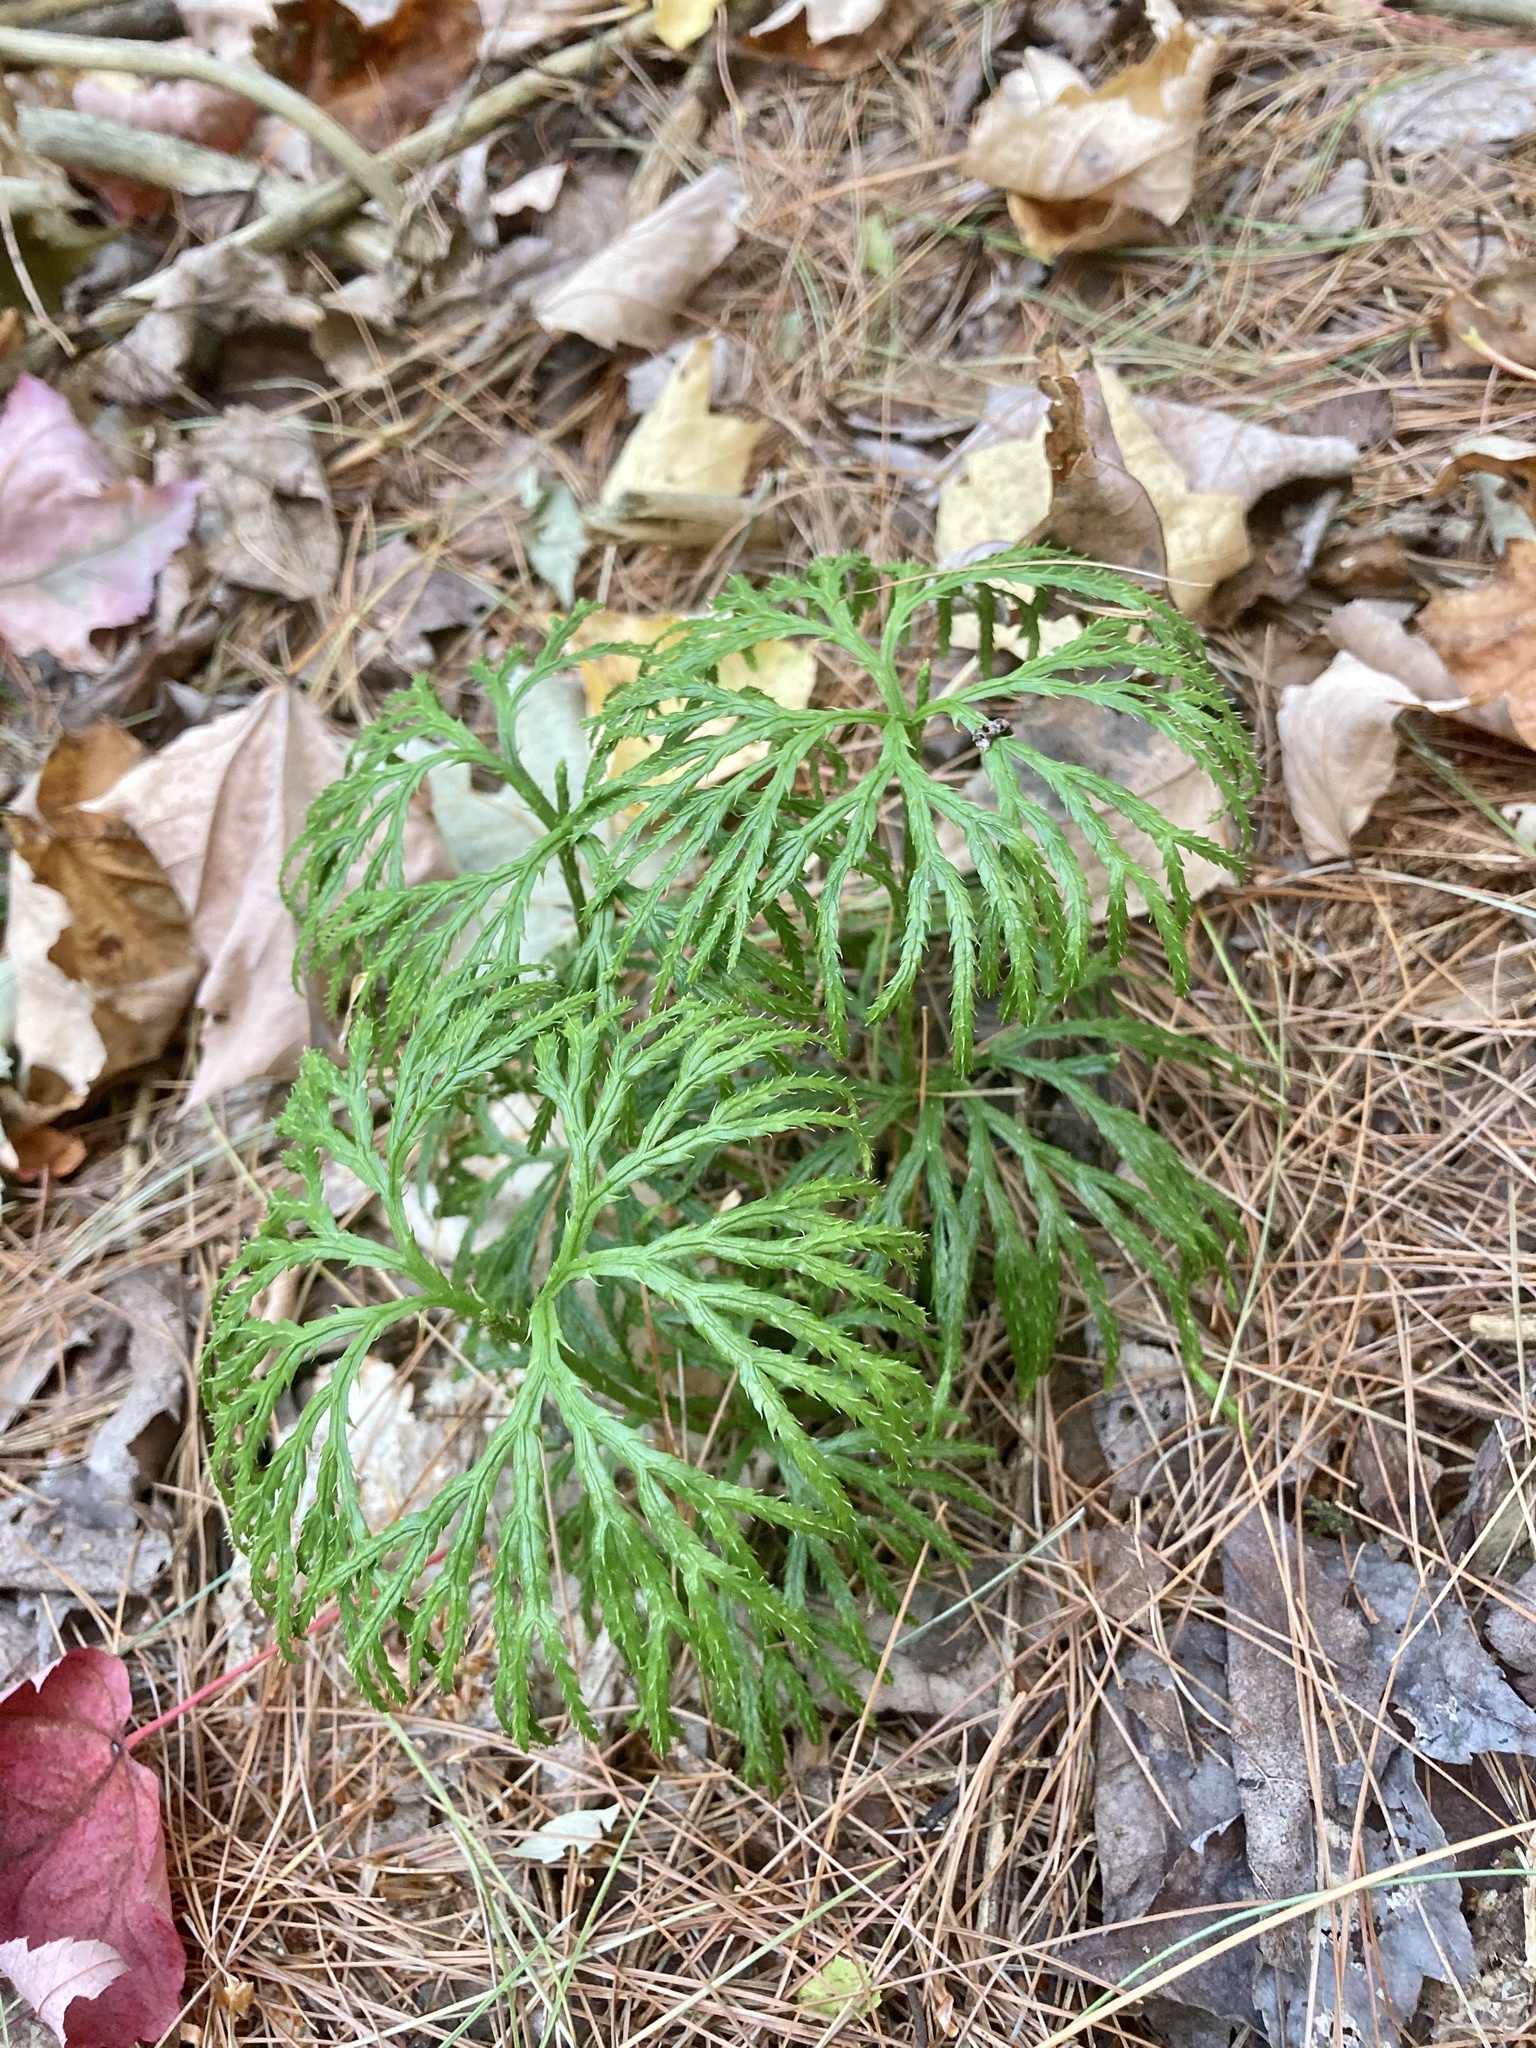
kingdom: Plantae
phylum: Tracheophyta
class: Lycopodiopsida
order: Lycopodiales
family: Lycopodiaceae
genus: Diphasiastrum
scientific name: Diphasiastrum digitatum
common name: Southern running-pine
